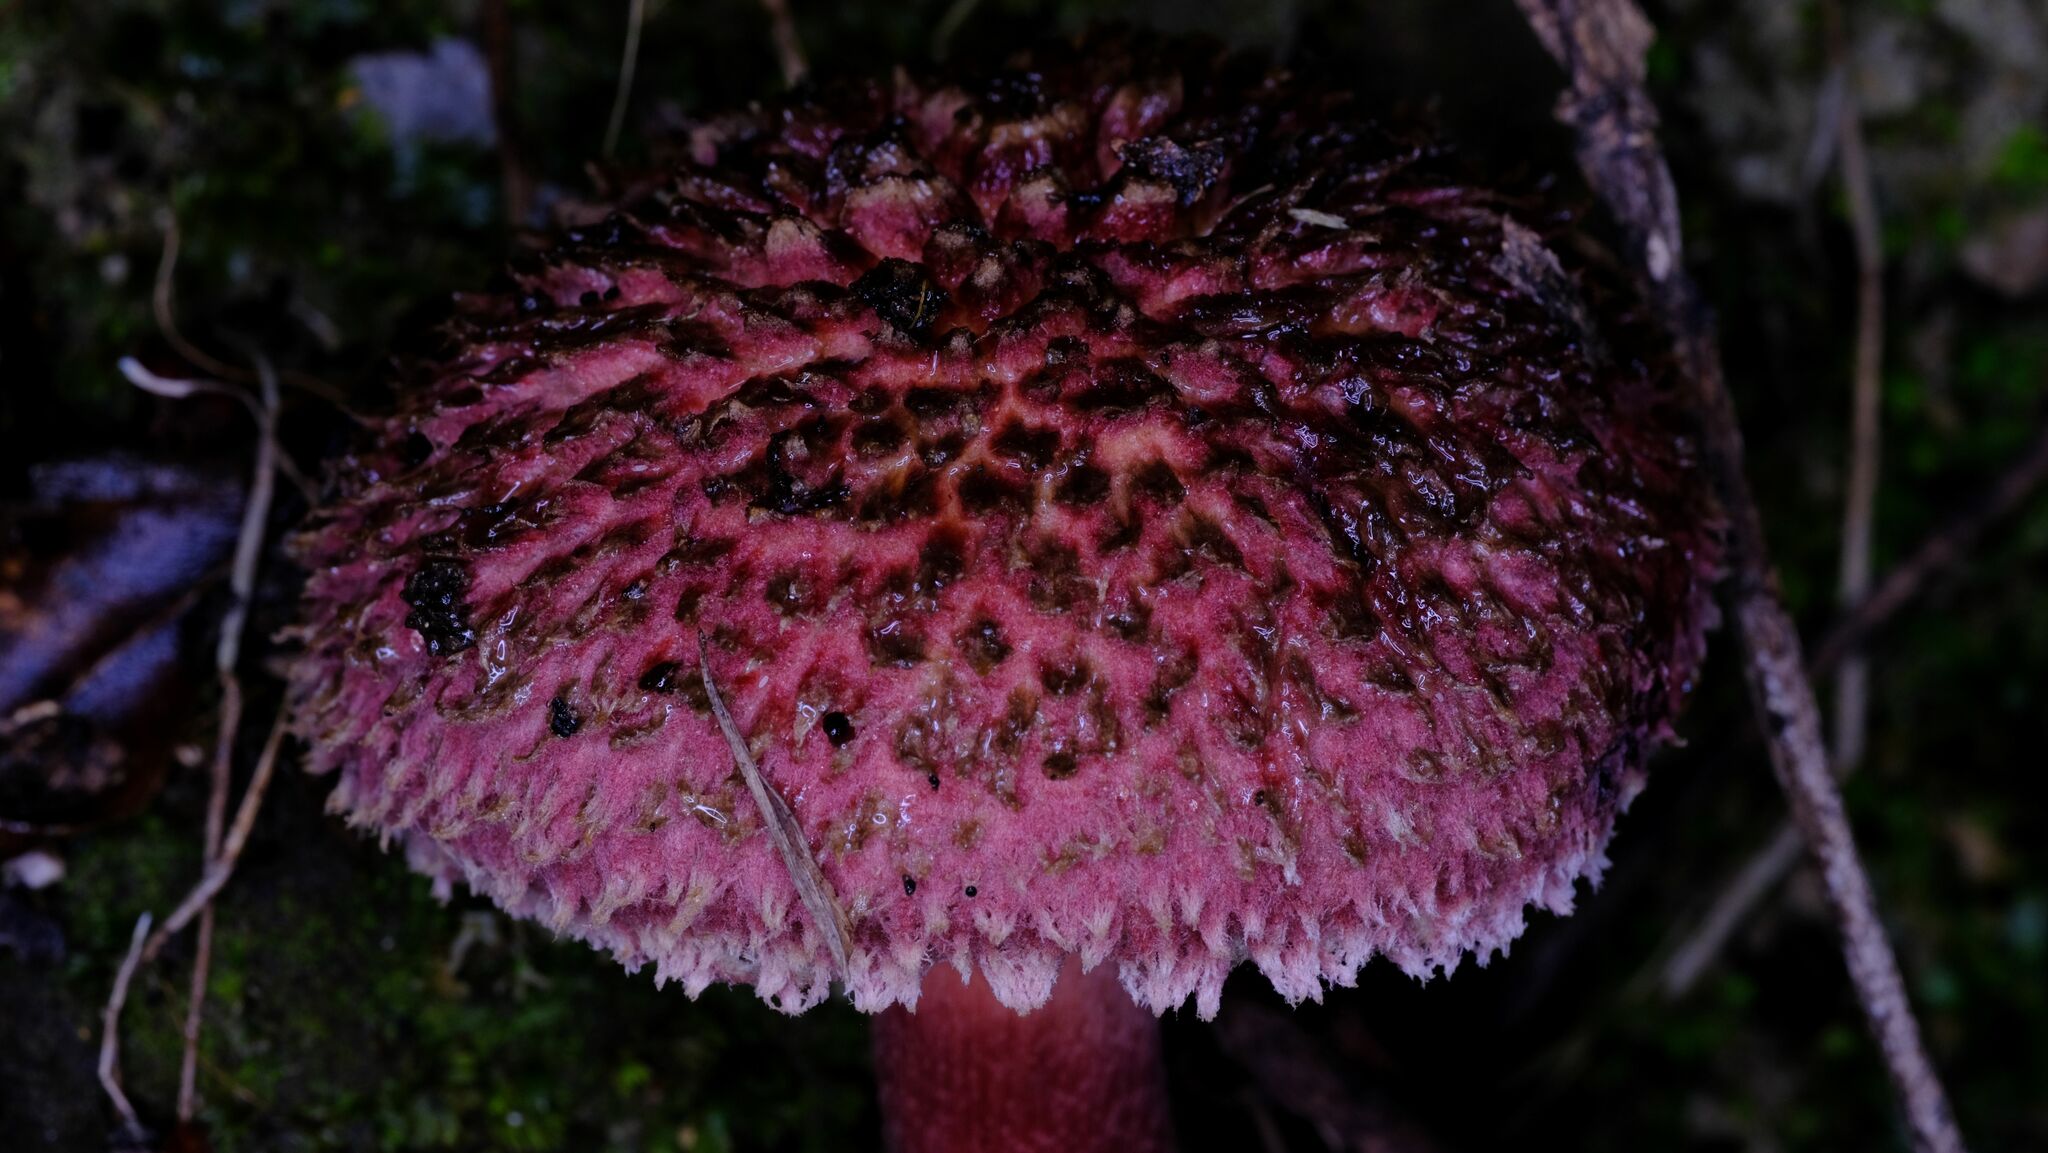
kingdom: Fungi
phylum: Basidiomycota
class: Agaricomycetes
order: Boletales
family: Boletaceae
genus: Boletellus
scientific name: Boletellus emodensis
